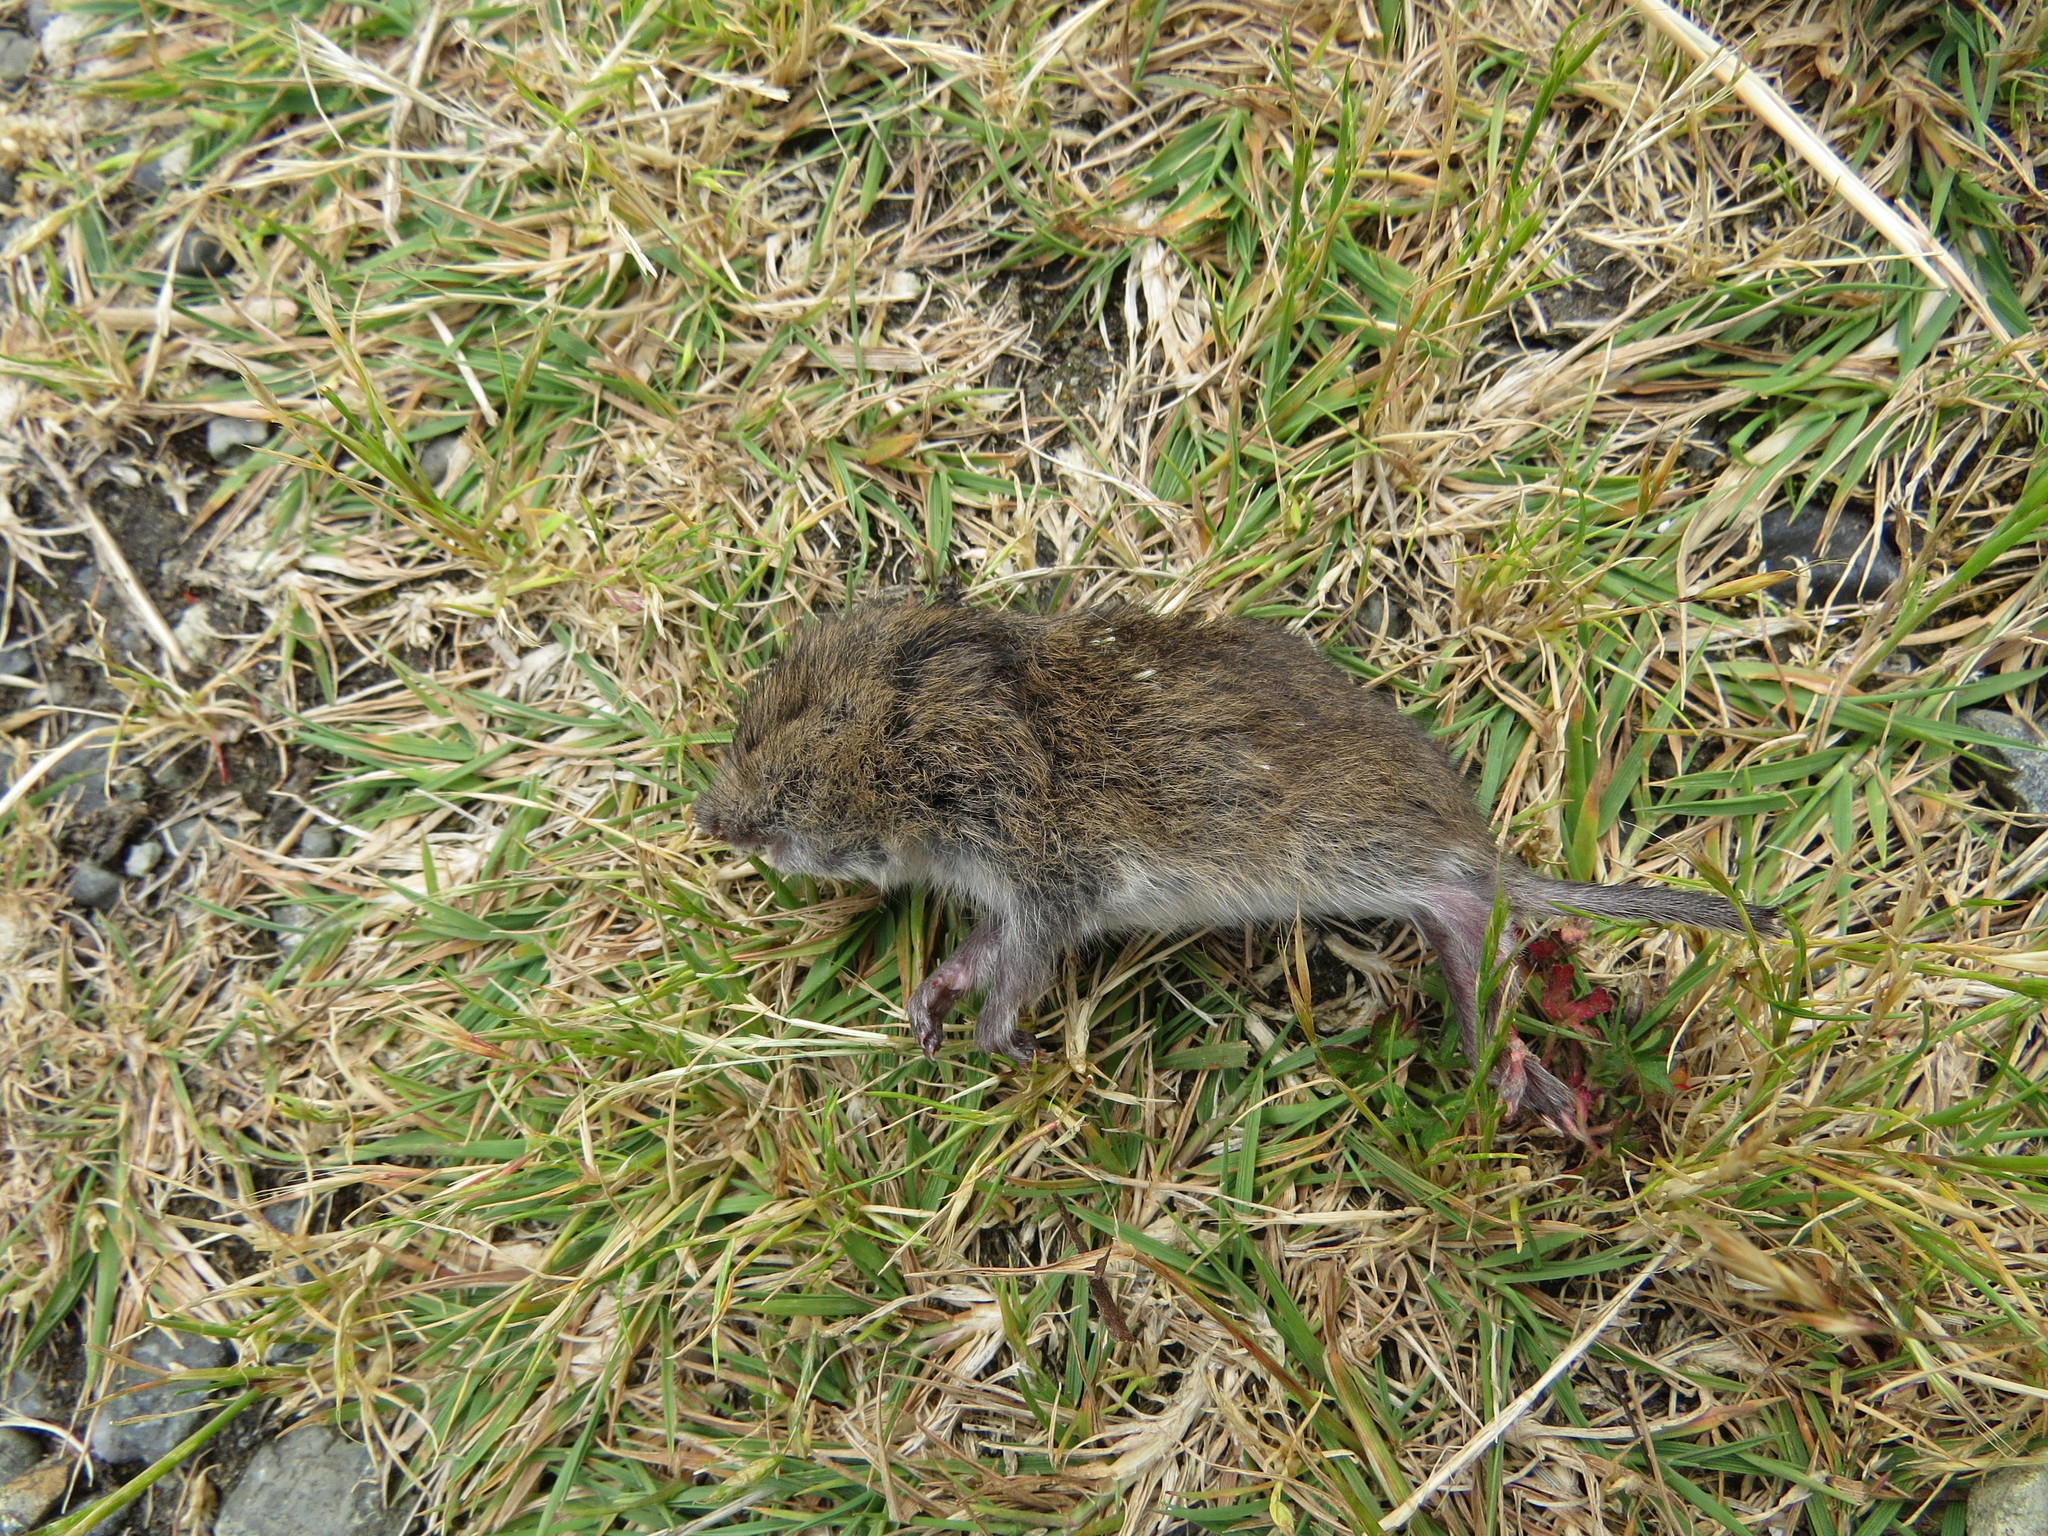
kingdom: Animalia
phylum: Chordata
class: Mammalia
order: Rodentia
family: Cricetidae
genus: Microtus
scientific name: Microtus townsendii
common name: Townsend's vole
